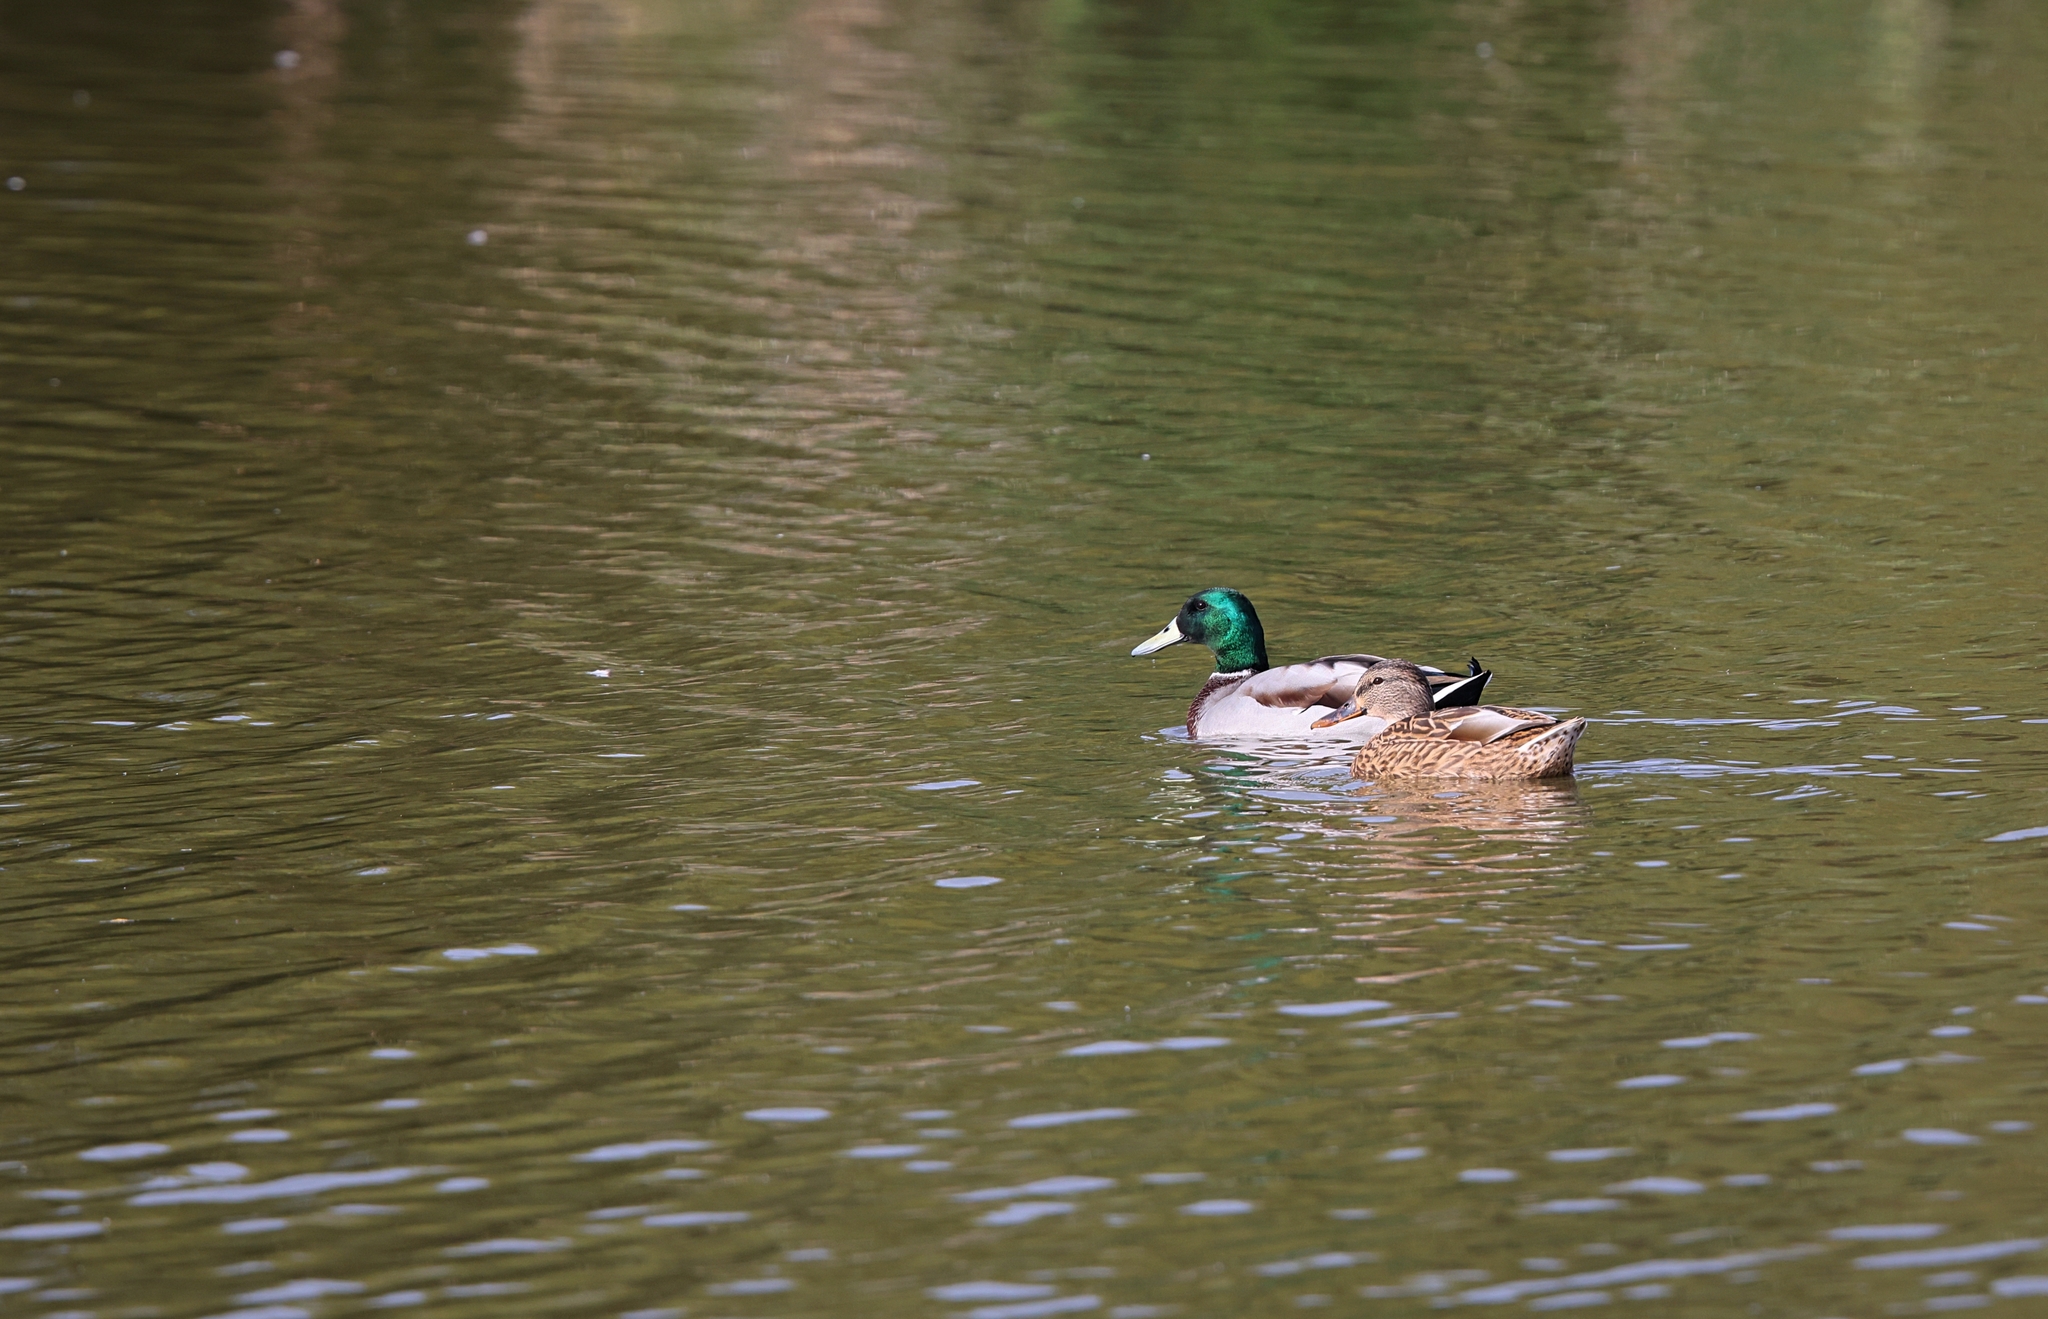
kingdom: Animalia
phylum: Chordata
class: Aves
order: Anseriformes
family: Anatidae
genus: Anas
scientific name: Anas platyrhynchos
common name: Mallard
